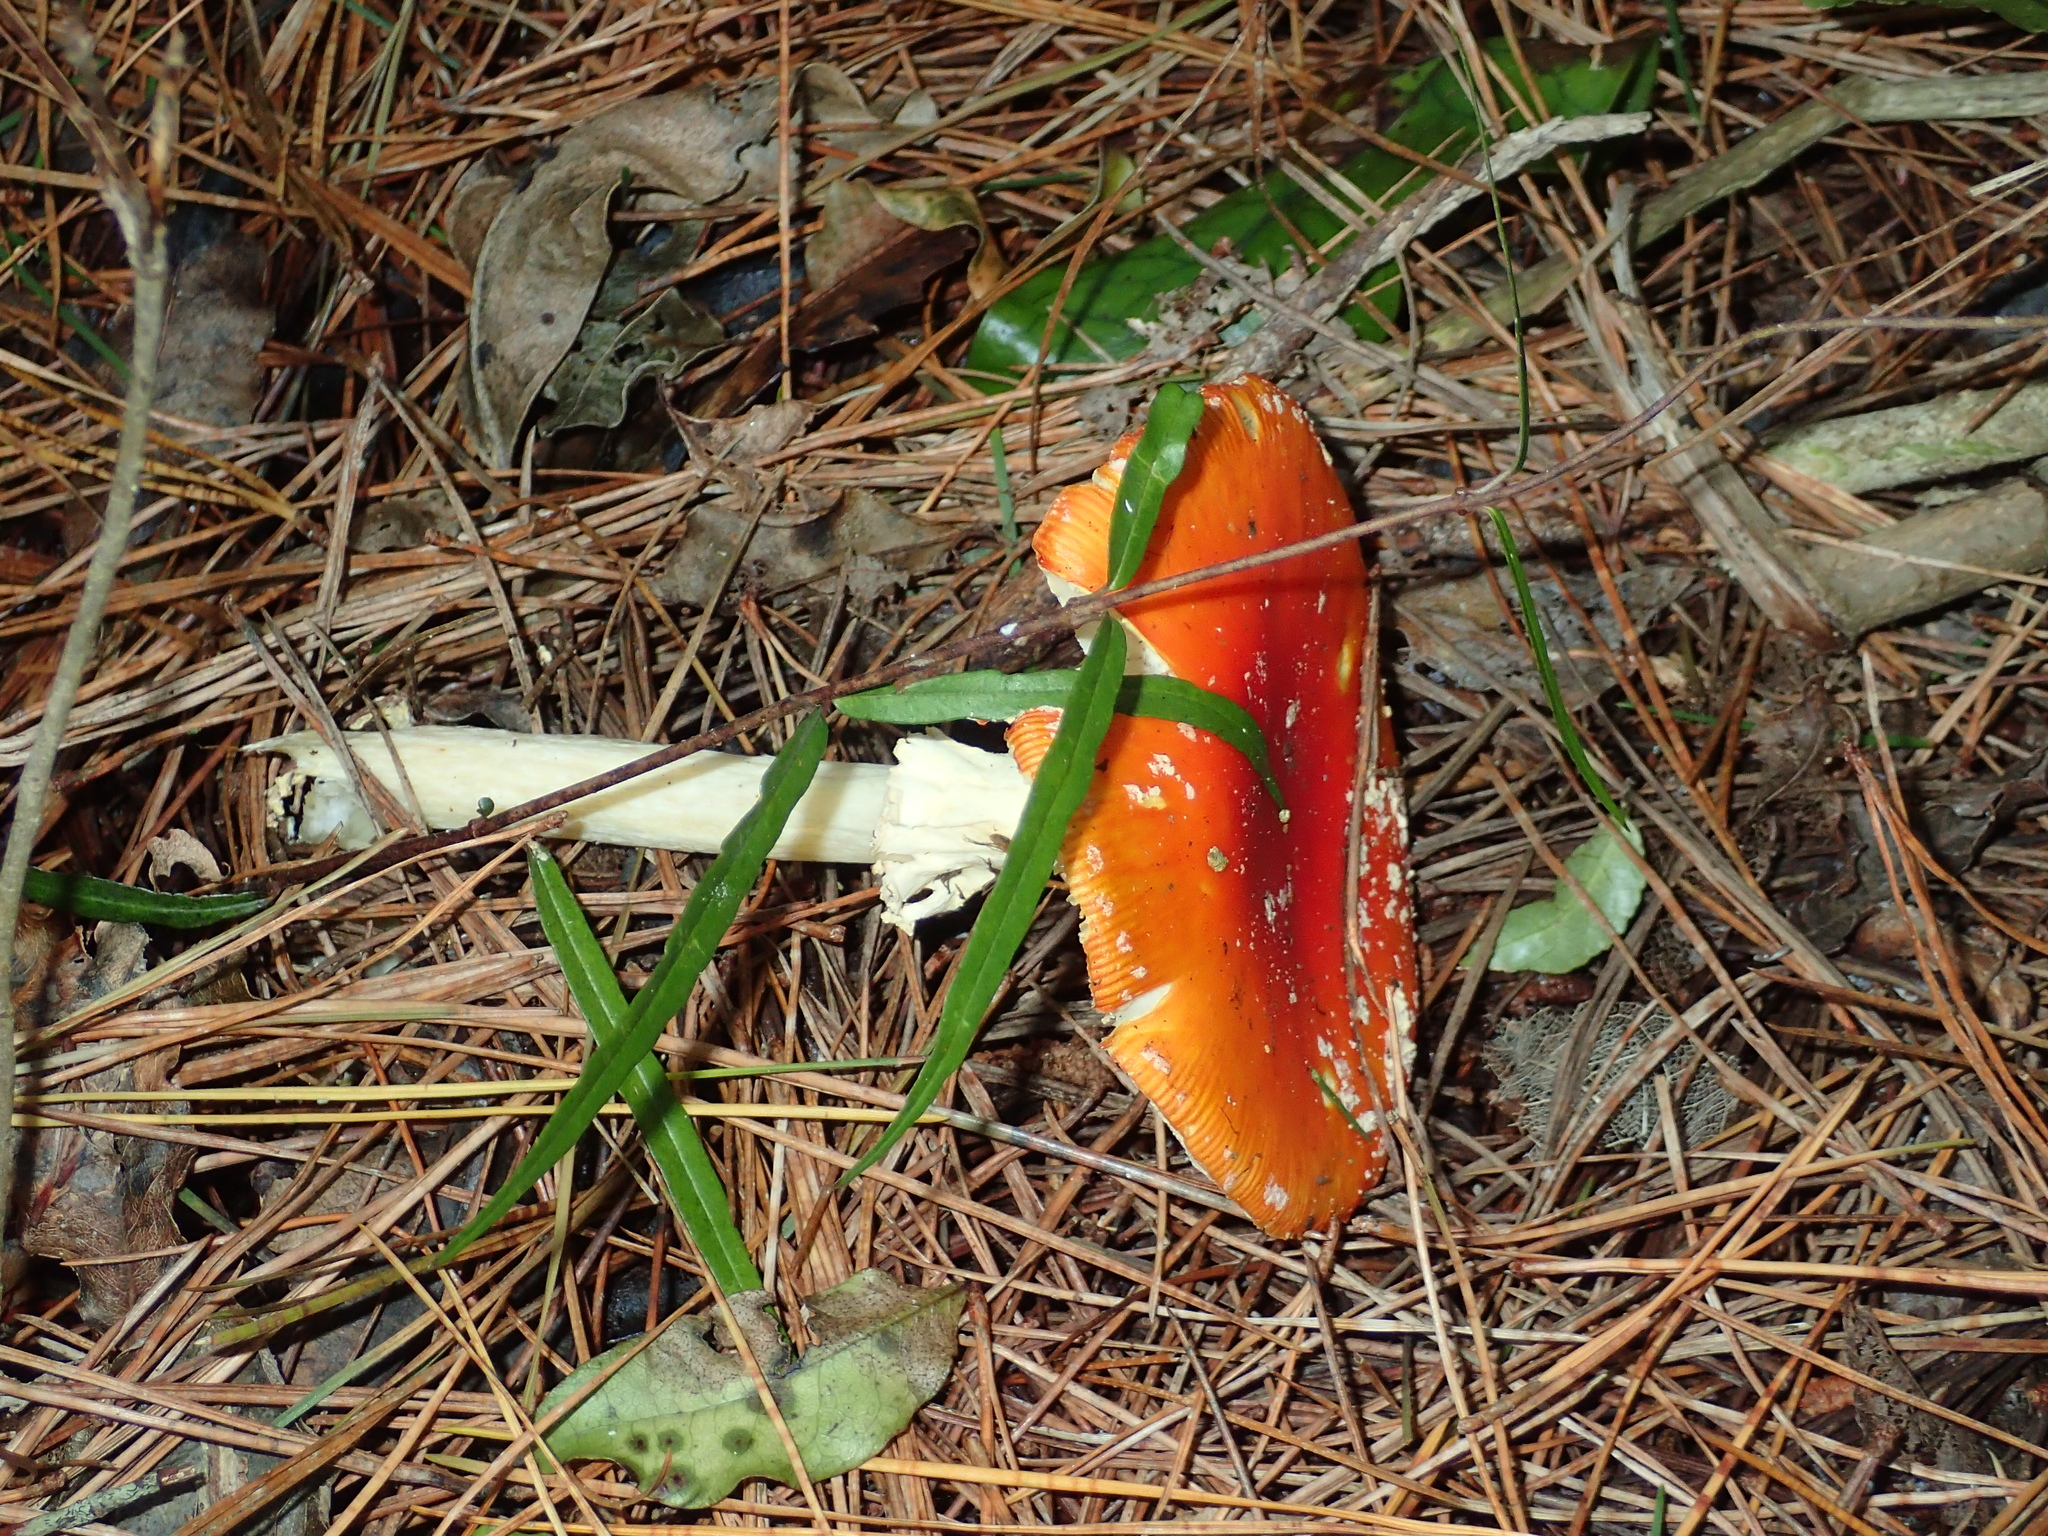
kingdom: Fungi
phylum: Basidiomycota
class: Agaricomycetes
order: Agaricales
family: Amanitaceae
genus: Amanita
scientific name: Amanita muscaria
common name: Fly agaric
